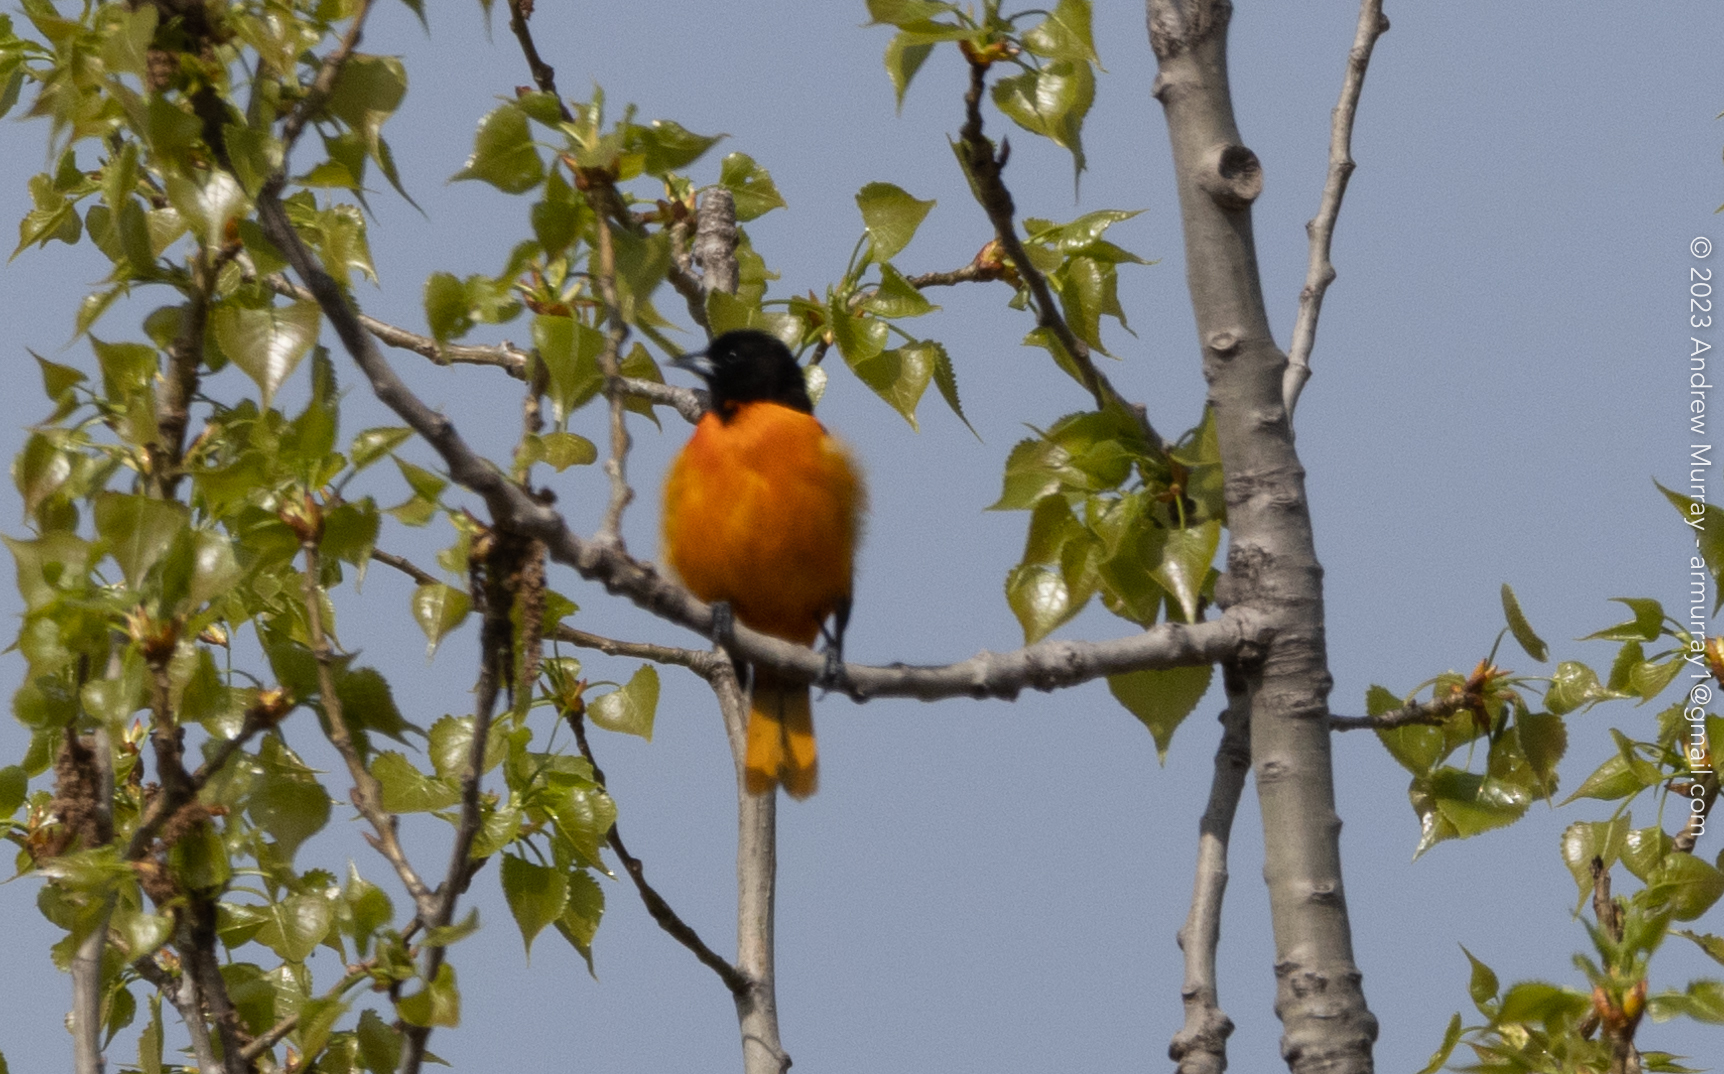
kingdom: Animalia
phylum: Chordata
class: Aves
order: Passeriformes
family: Icteridae
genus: Icterus
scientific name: Icterus galbula
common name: Baltimore oriole
